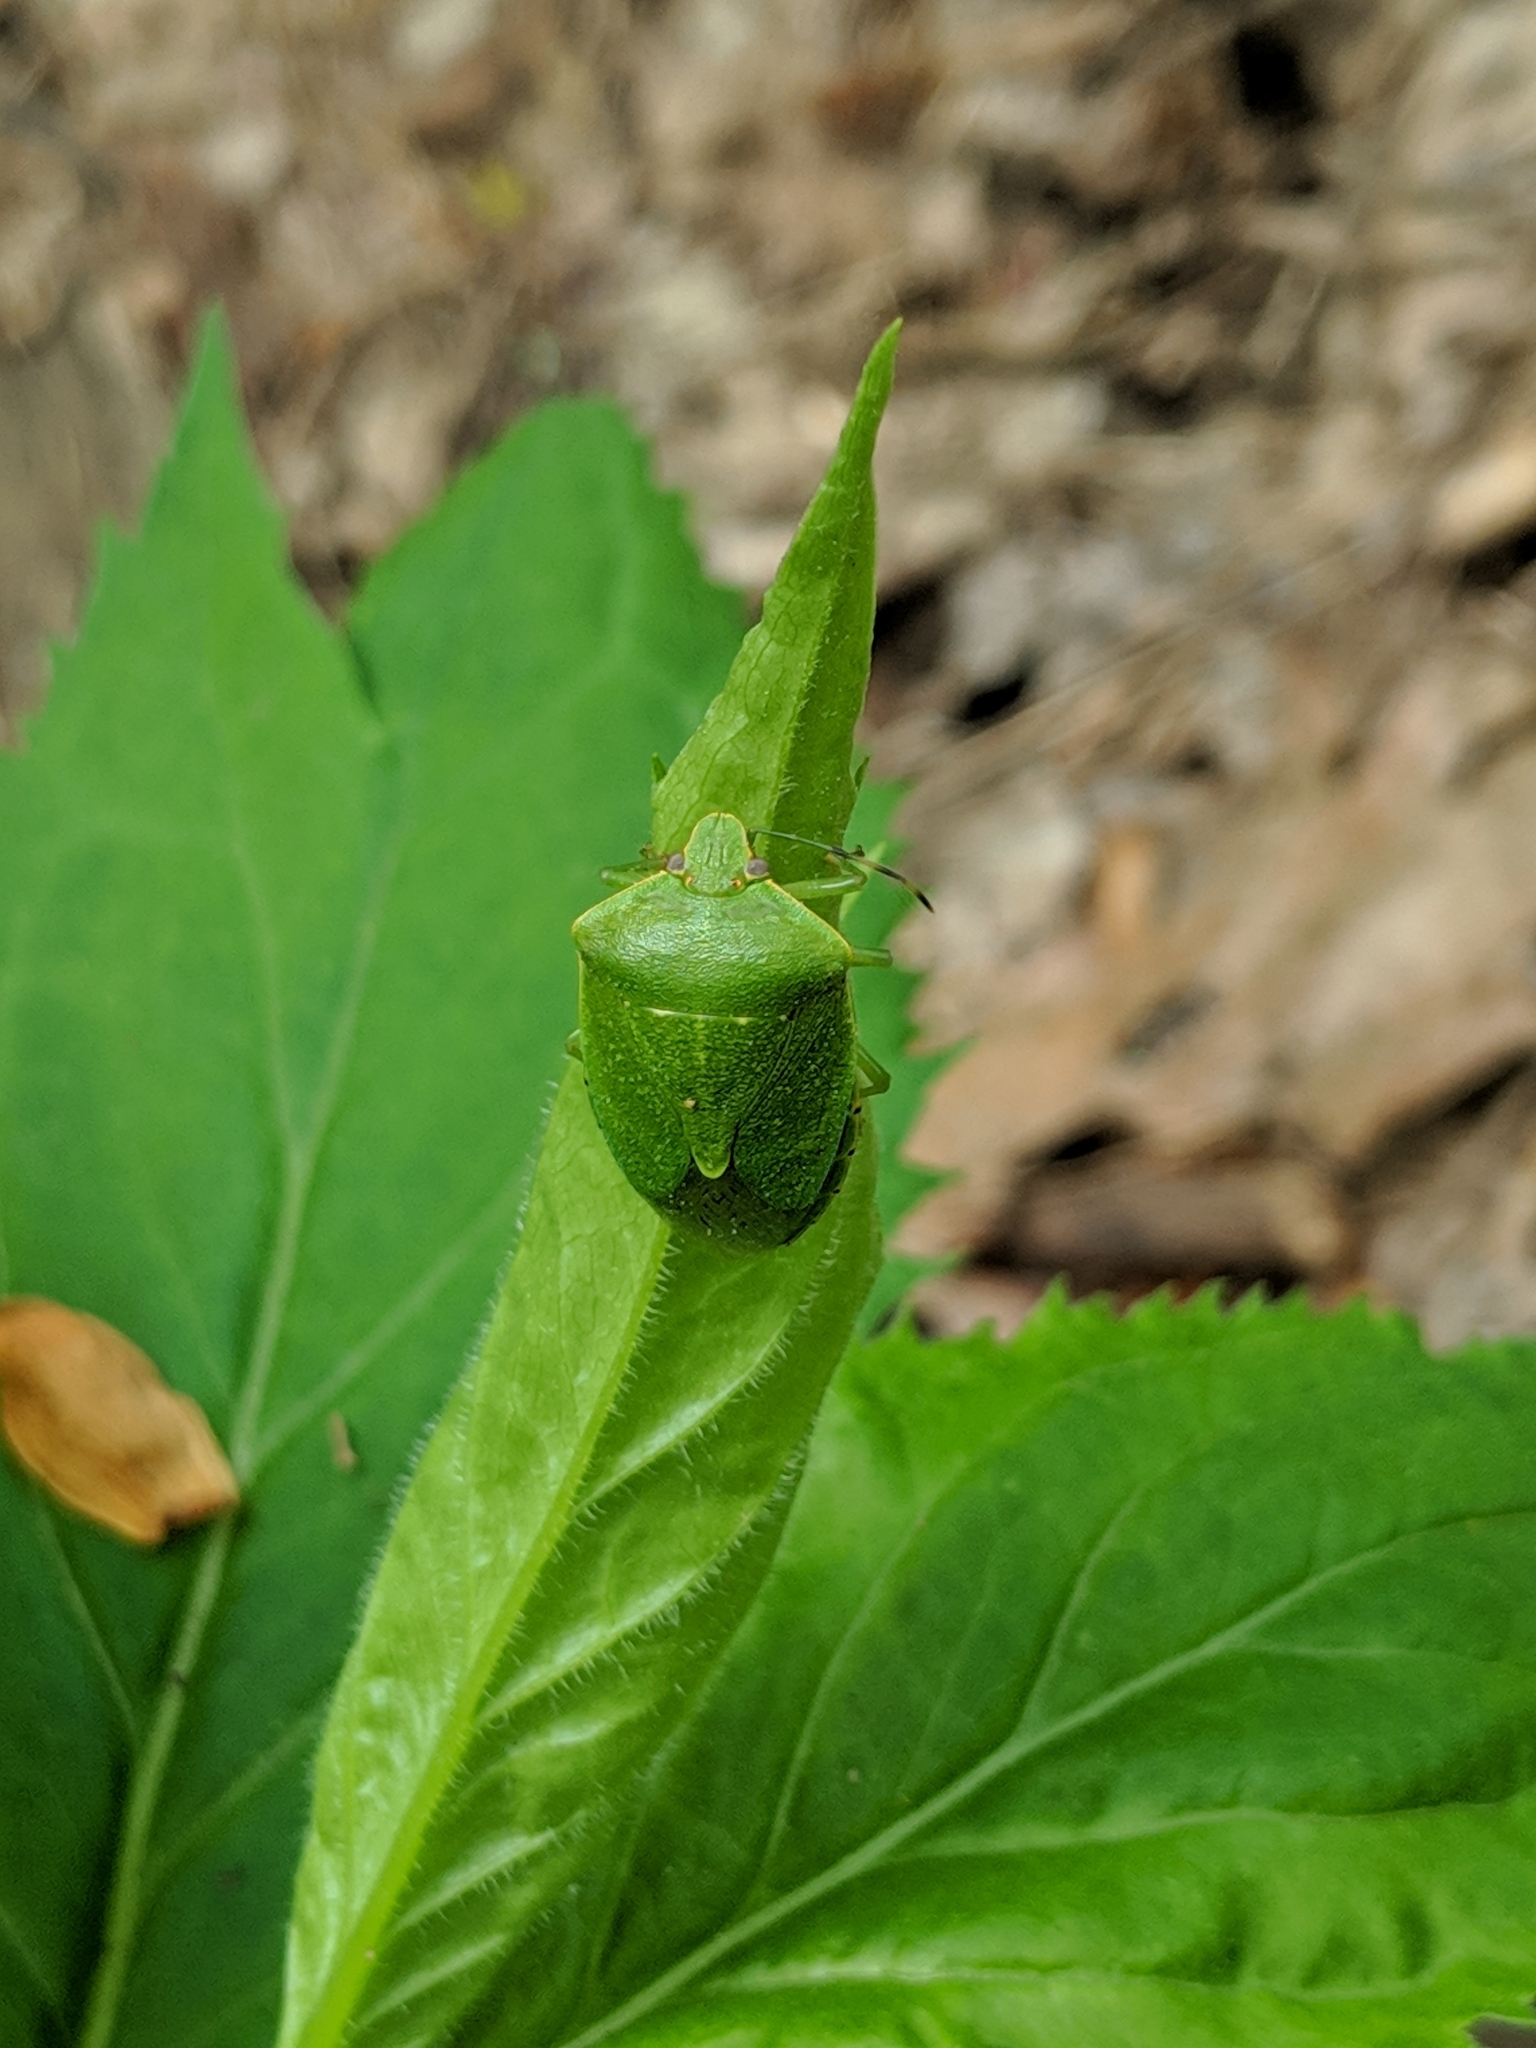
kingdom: Animalia
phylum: Arthropoda
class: Insecta
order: Hemiptera
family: Pentatomidae
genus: Chinavia
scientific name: Chinavia hilaris
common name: Green stink bug
